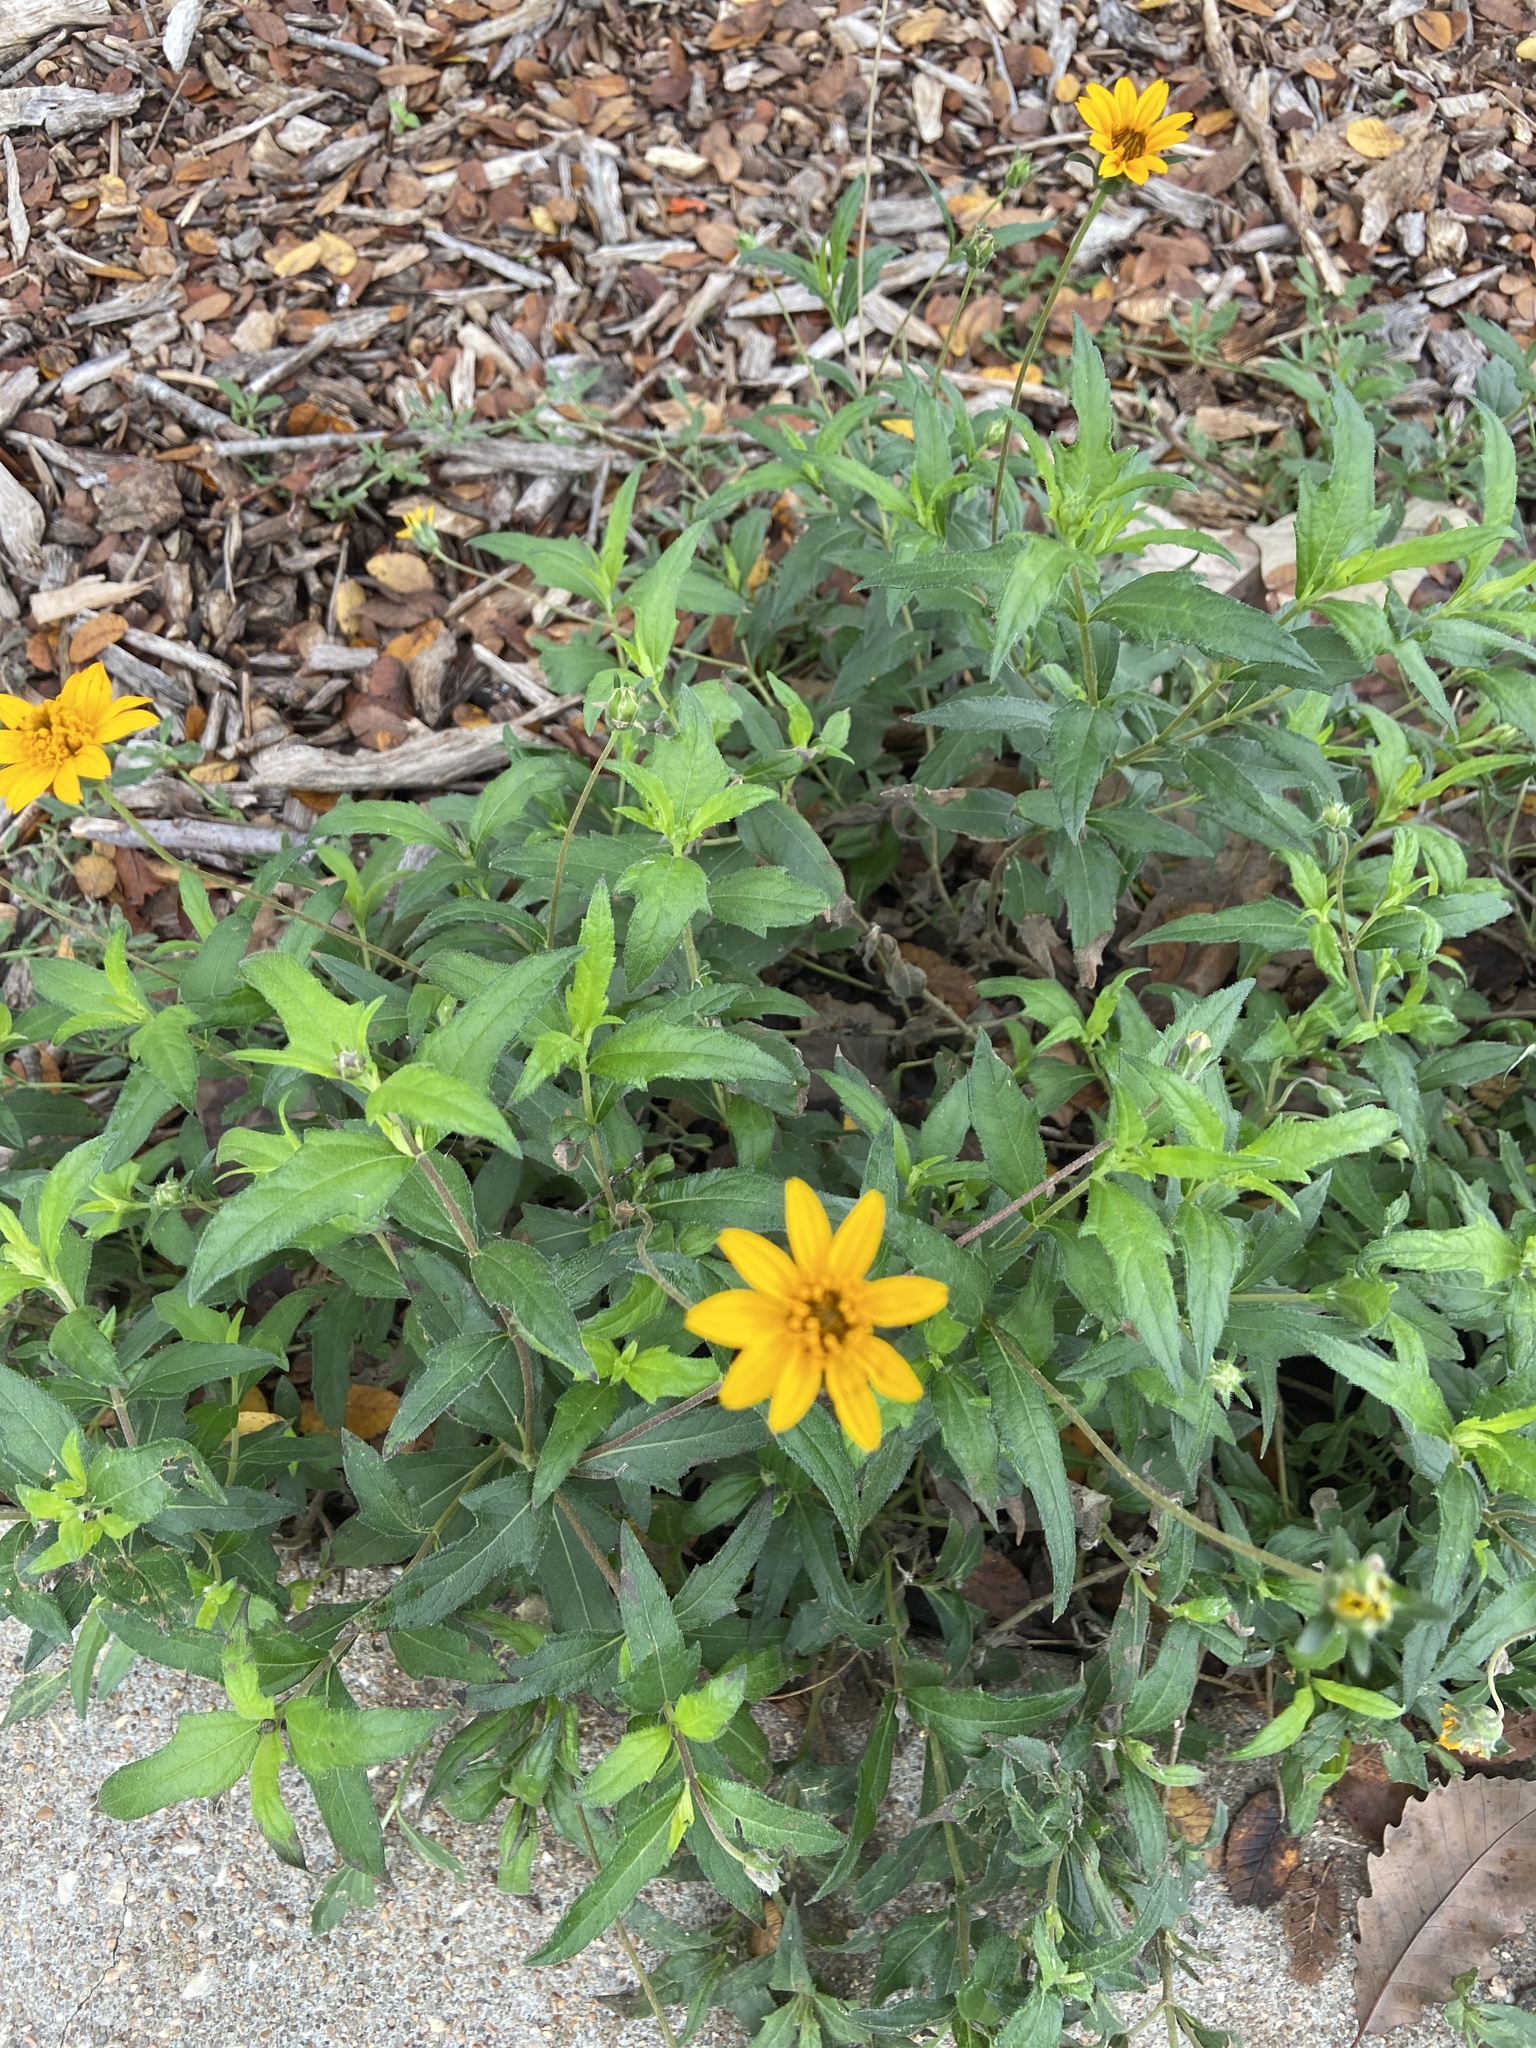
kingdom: Plantae
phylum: Tracheophyta
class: Magnoliopsida
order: Asterales
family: Asteraceae
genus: Wedelia
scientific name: Wedelia acapulcensis
